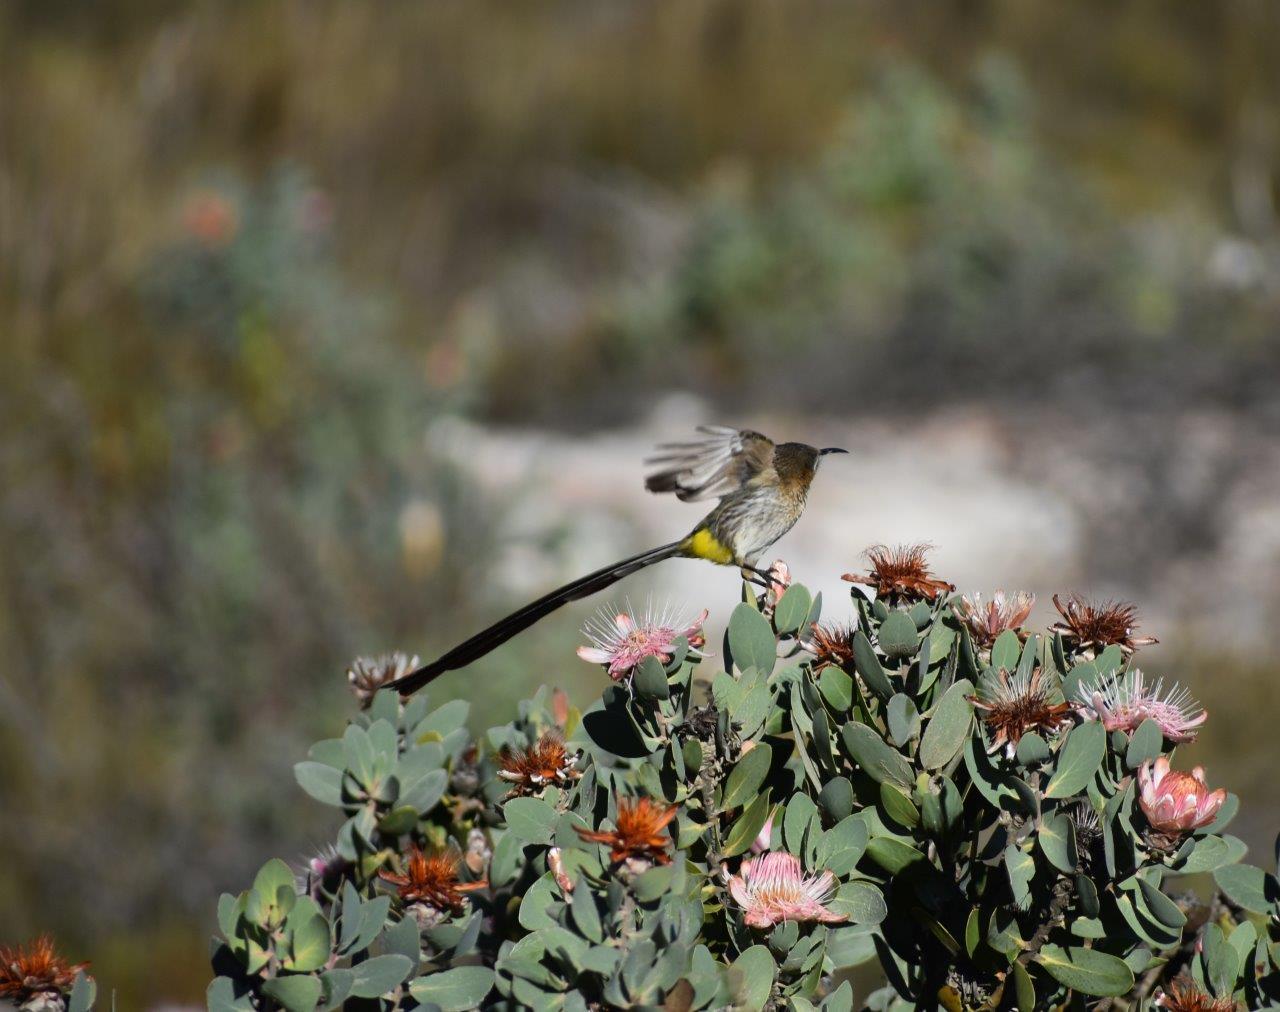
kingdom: Animalia
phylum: Chordata
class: Aves
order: Passeriformes
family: Promeropidae
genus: Promerops
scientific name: Promerops cafer
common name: Cape sugarbird
